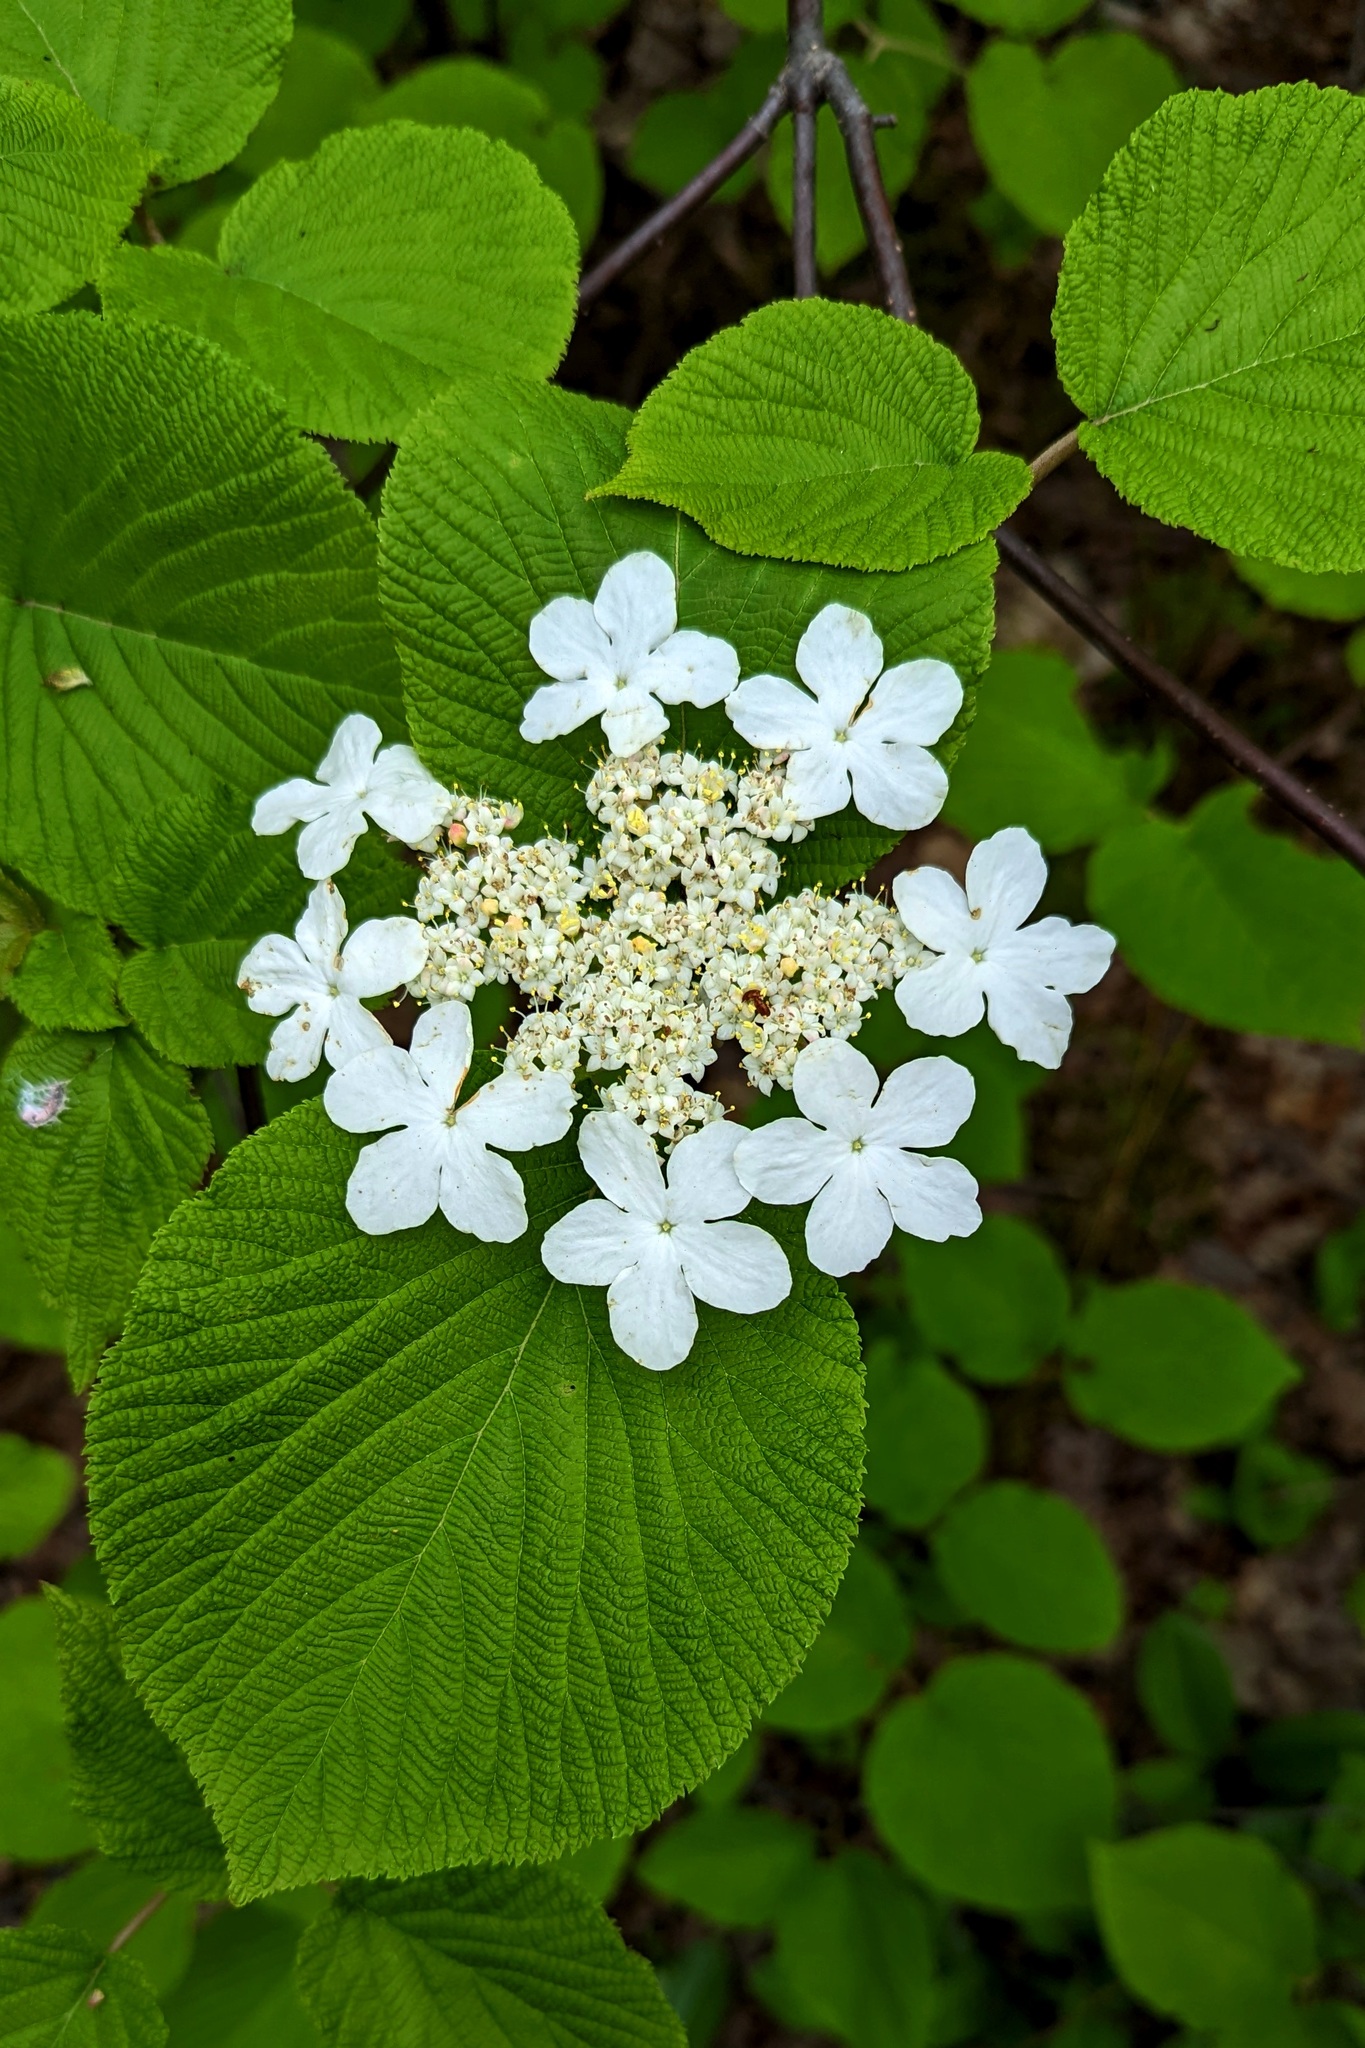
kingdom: Plantae
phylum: Tracheophyta
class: Magnoliopsida
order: Dipsacales
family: Viburnaceae
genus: Viburnum
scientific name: Viburnum lantanoides
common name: Hobblebush
